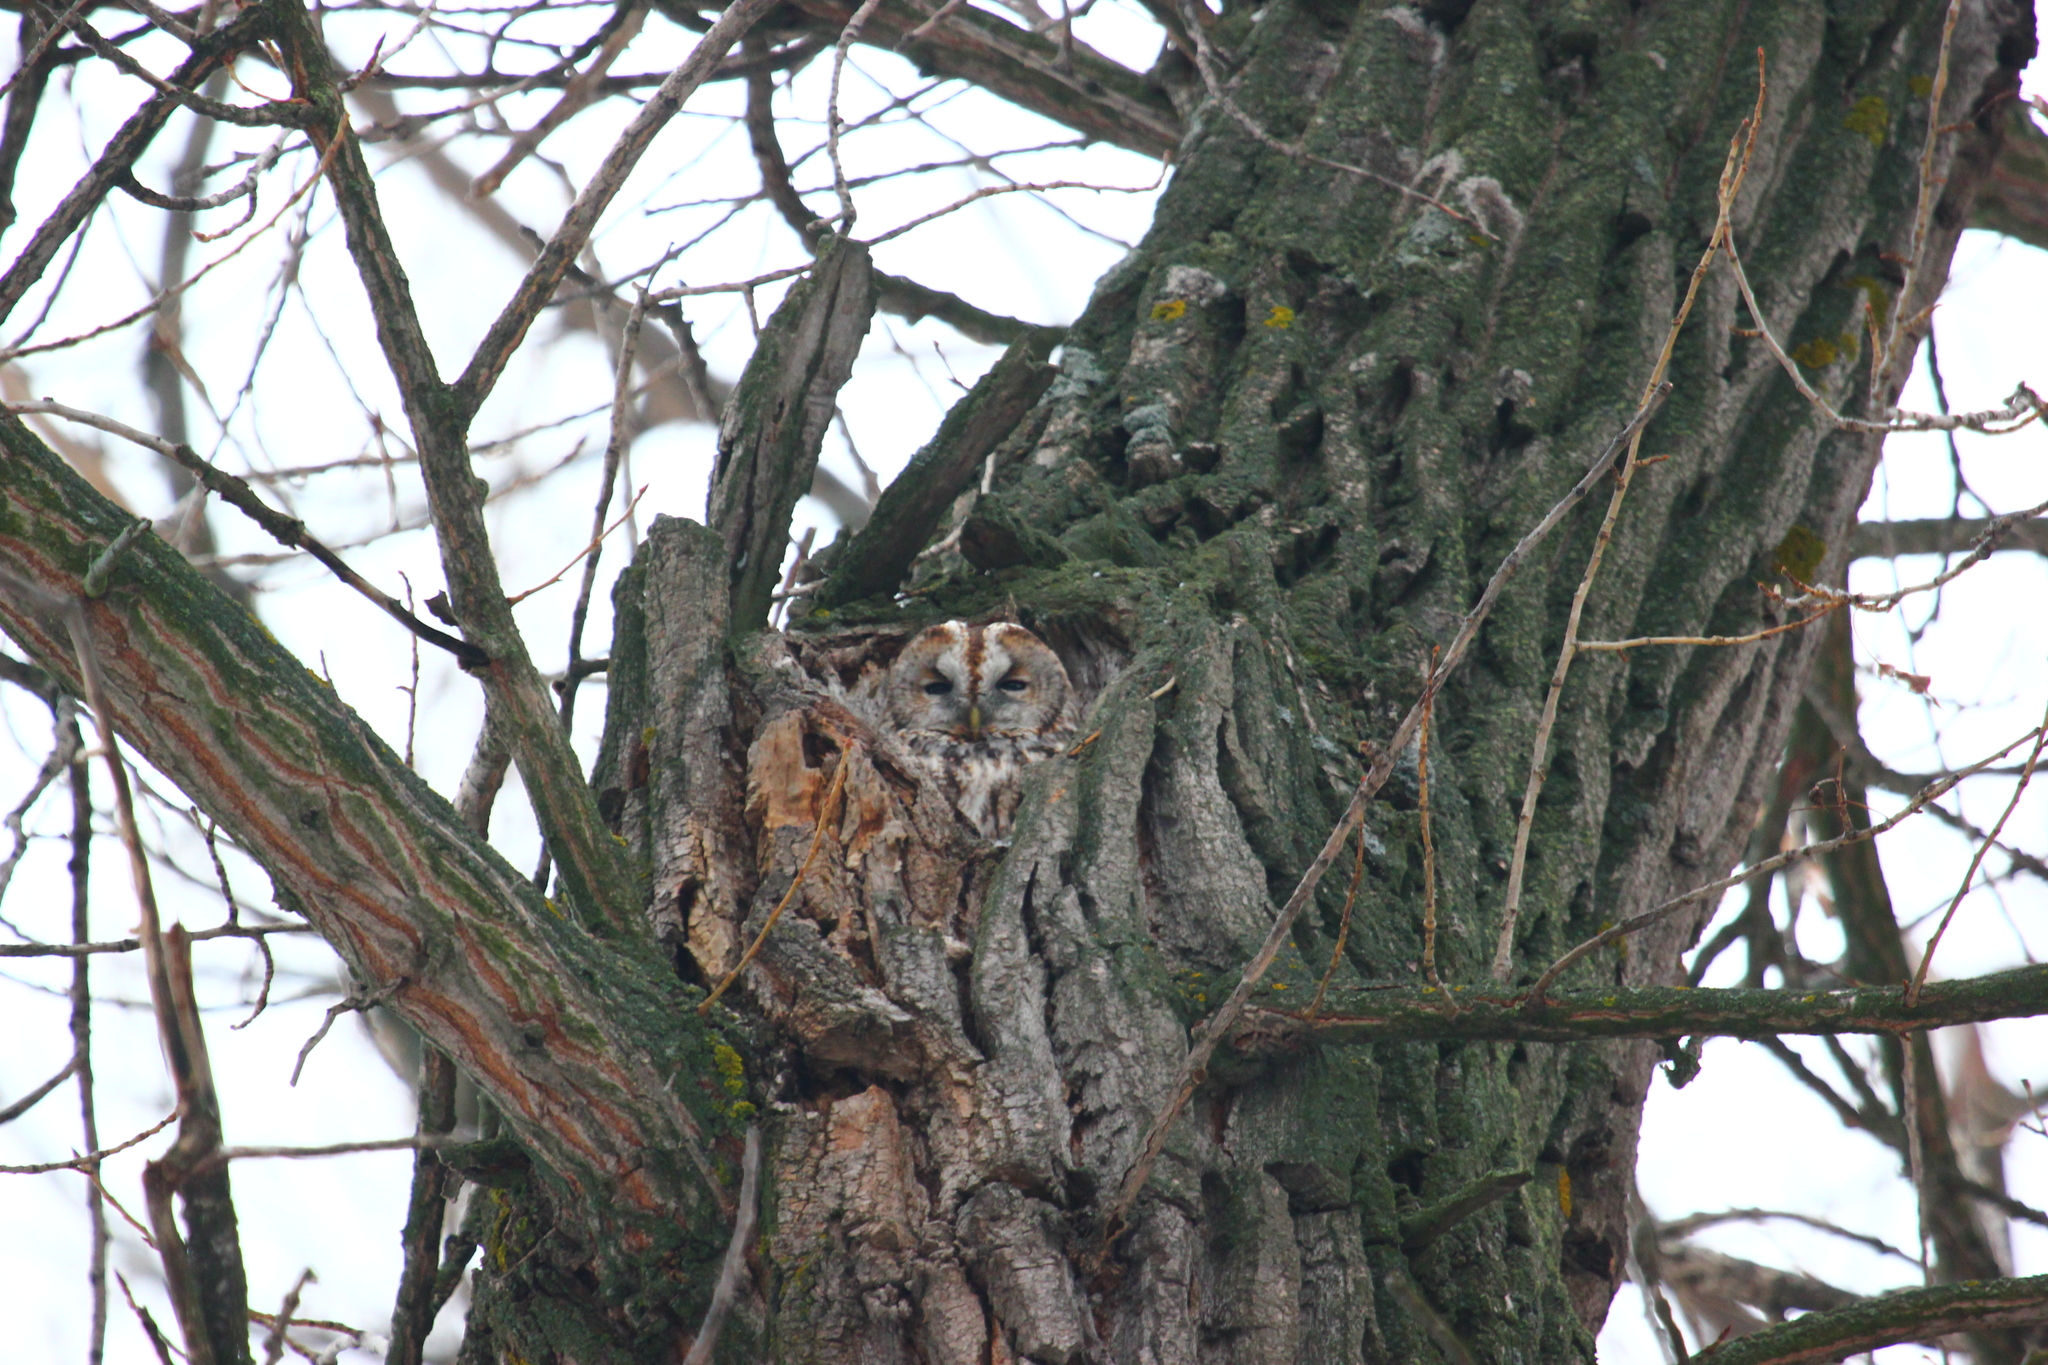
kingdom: Animalia
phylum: Chordata
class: Aves
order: Strigiformes
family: Strigidae
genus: Strix
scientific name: Strix aluco
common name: Tawny owl
